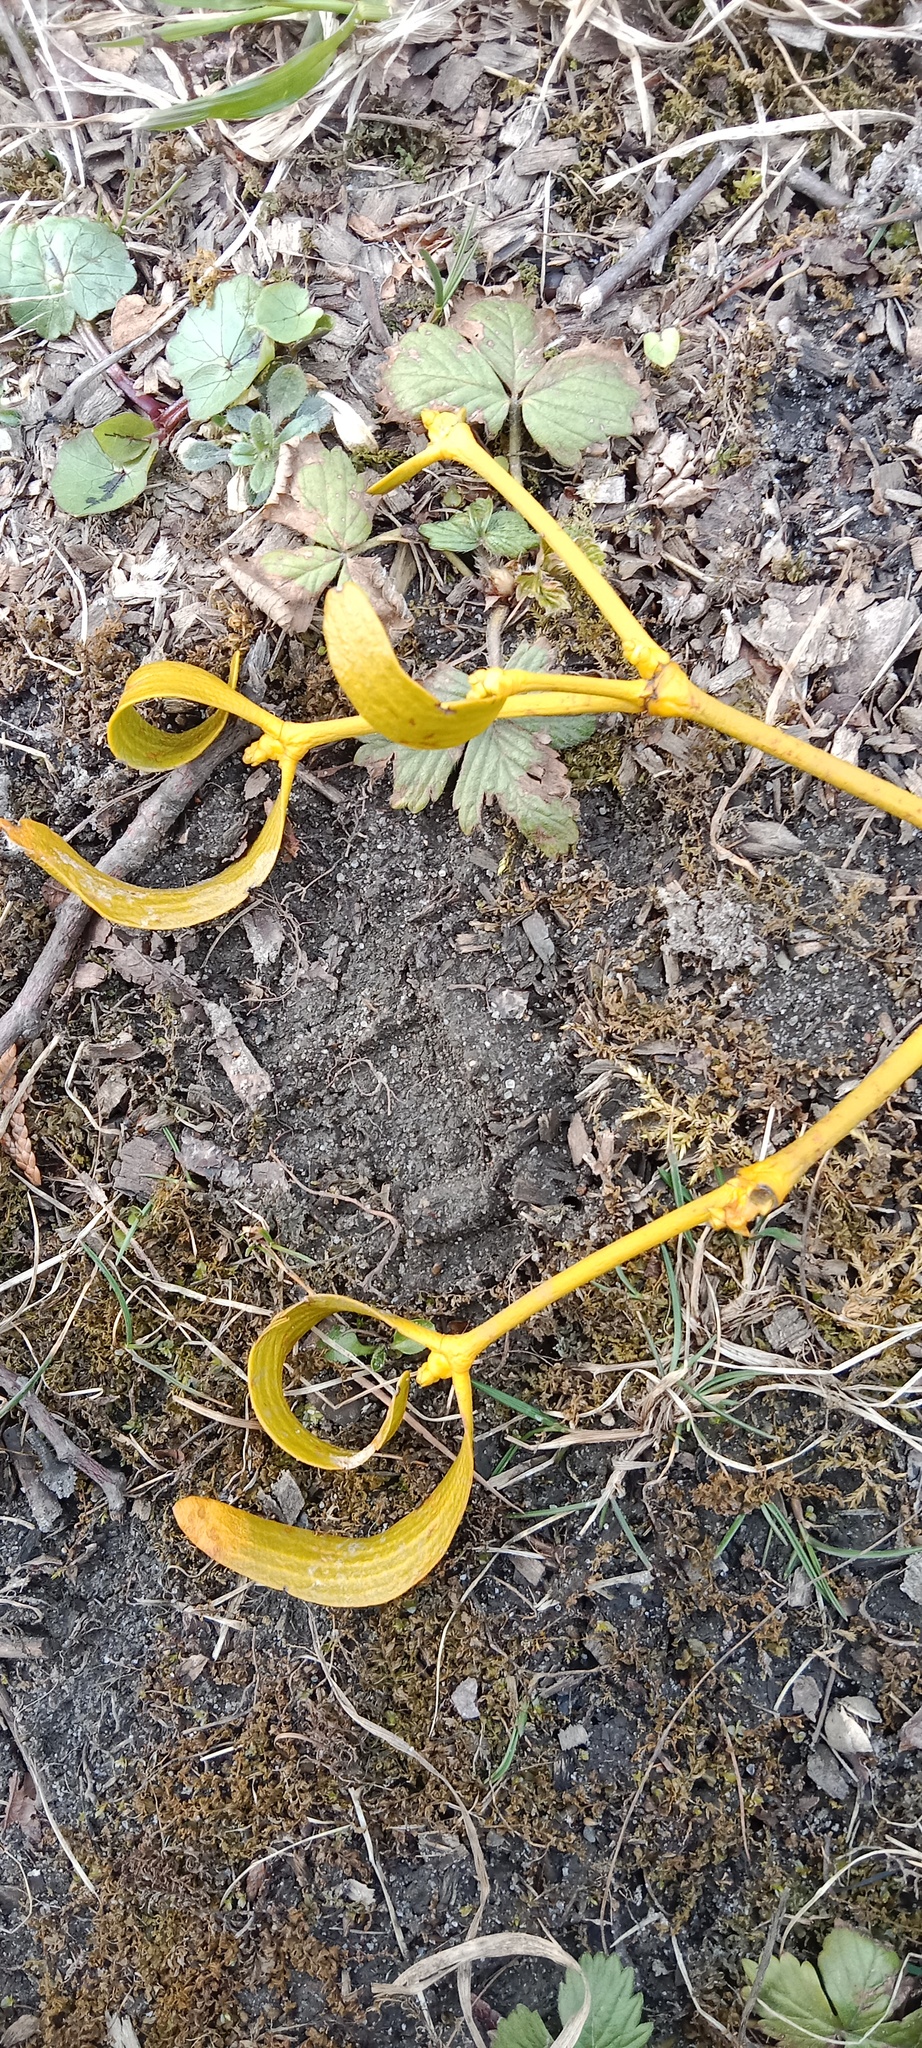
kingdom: Plantae
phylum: Tracheophyta
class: Magnoliopsida
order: Santalales
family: Viscaceae
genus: Viscum
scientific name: Viscum album
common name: Mistletoe
